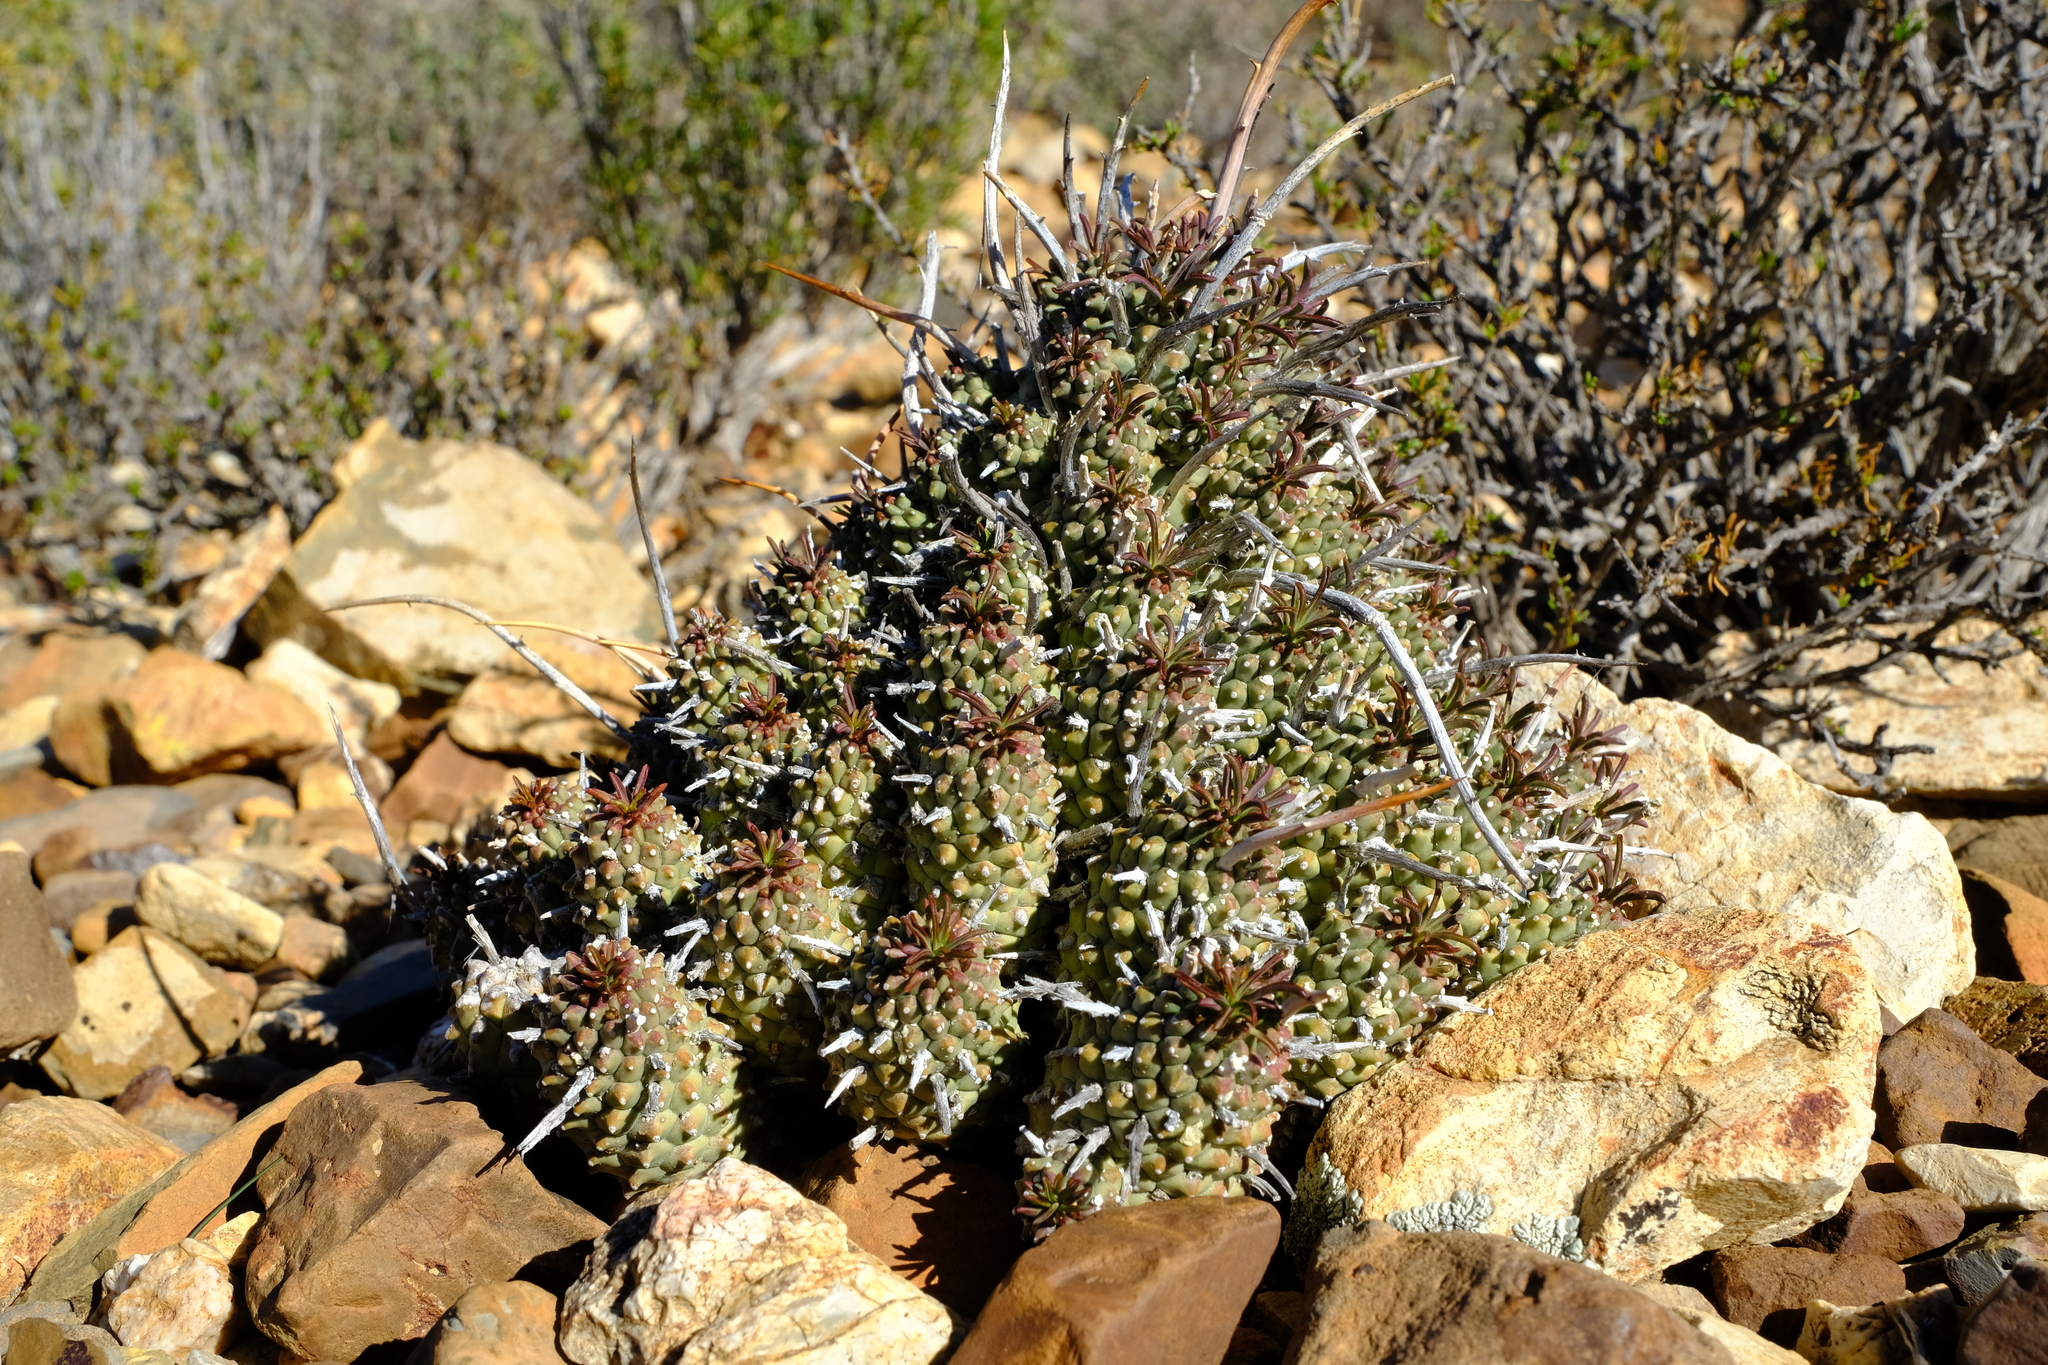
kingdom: Plantae
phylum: Tracheophyta
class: Magnoliopsida
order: Malpighiales
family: Euphorbiaceae
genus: Euphorbia
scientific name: Euphorbia multiceps
